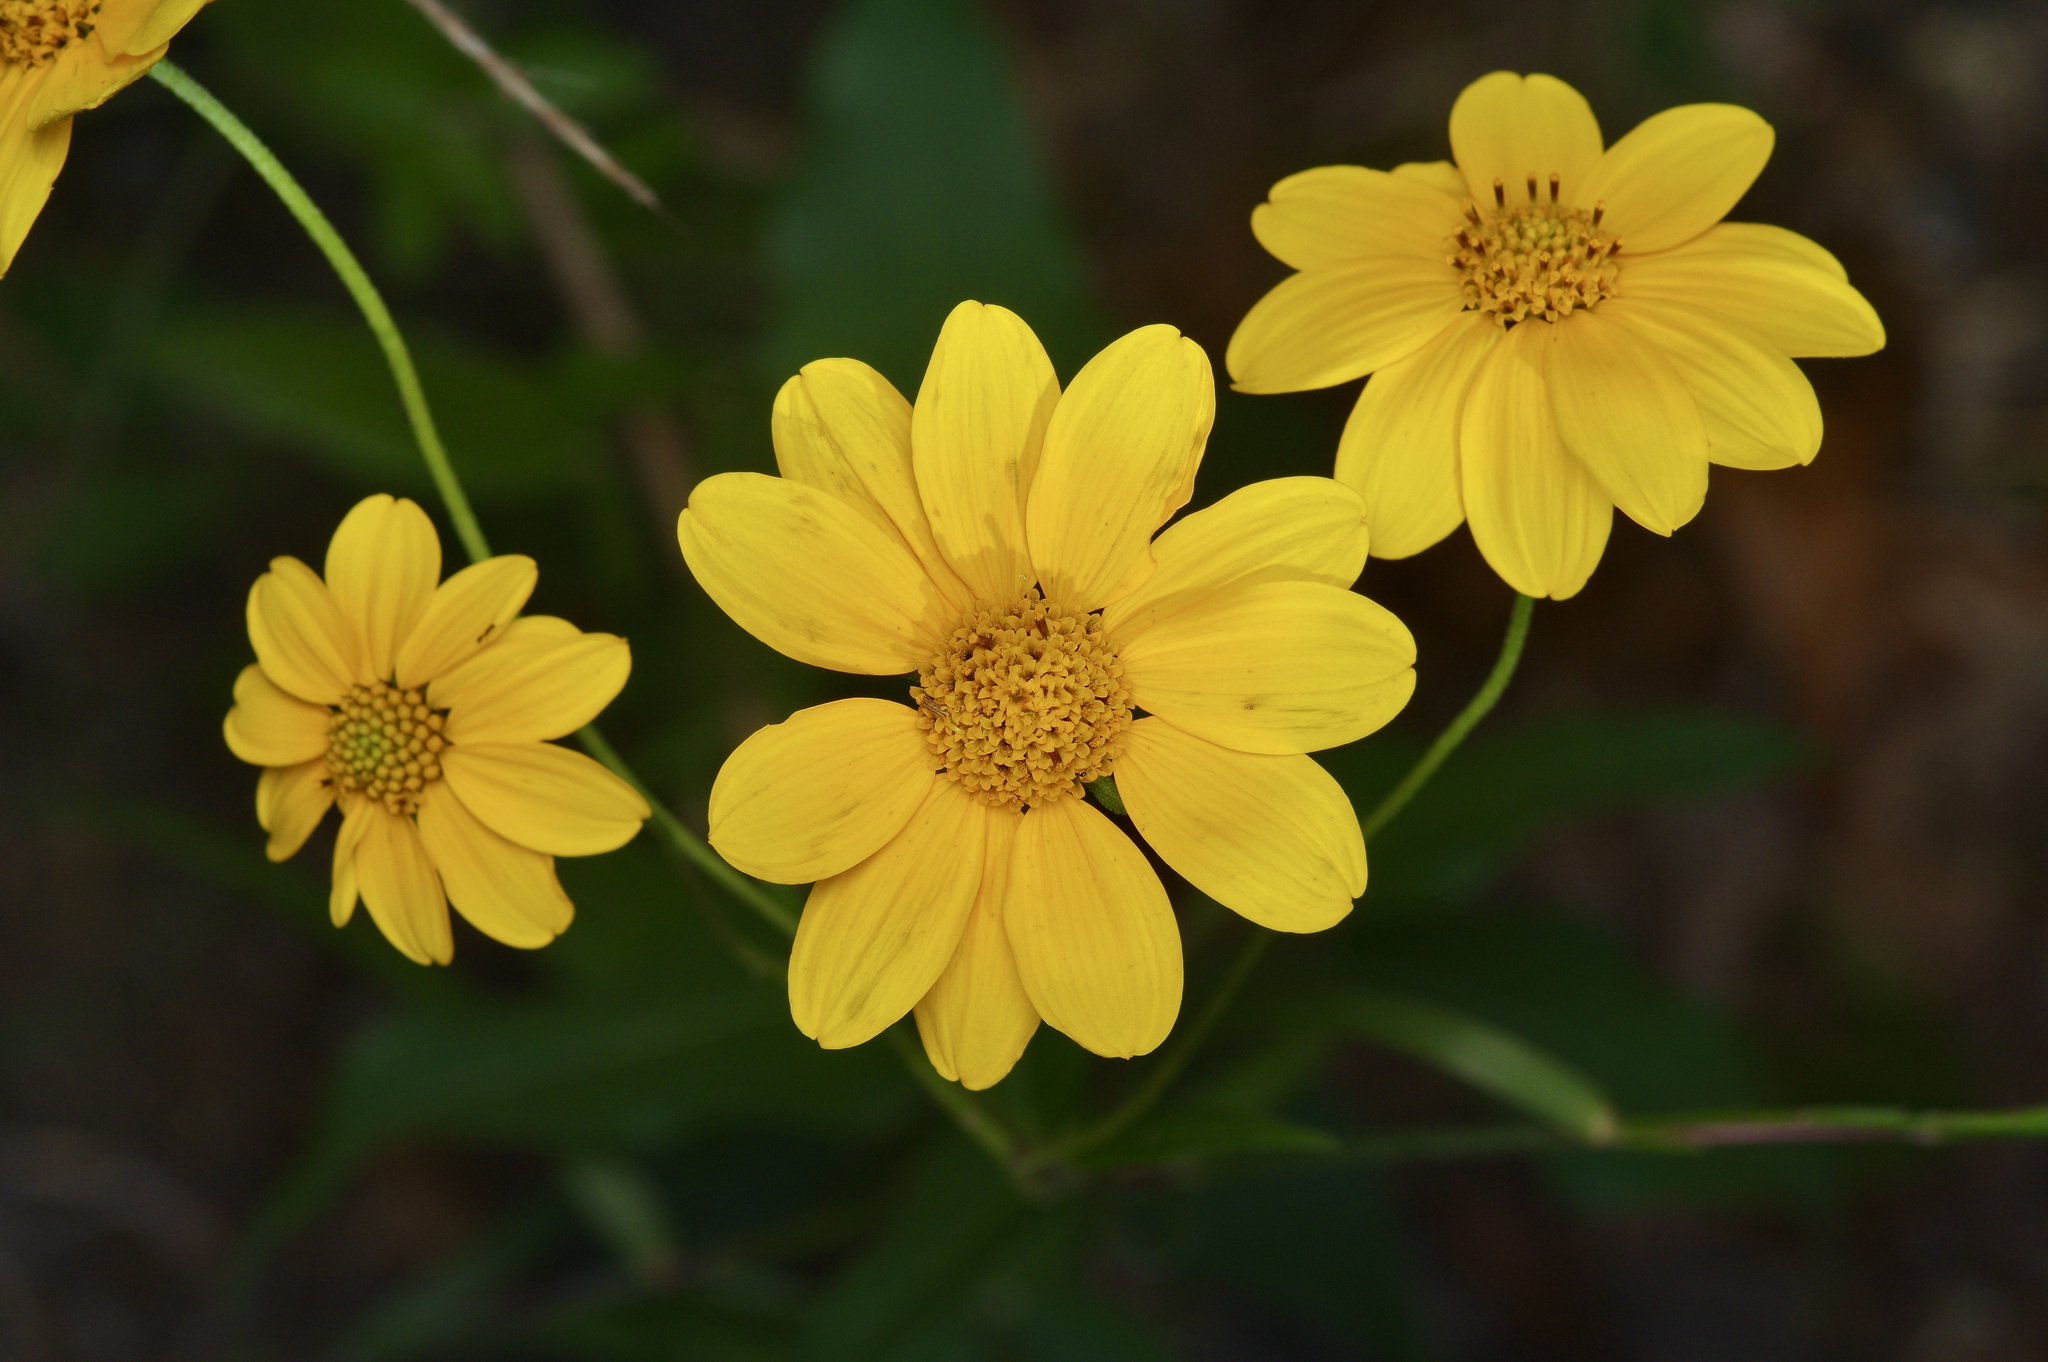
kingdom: Plantae
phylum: Tracheophyta
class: Magnoliopsida
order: Asterales
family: Asteraceae
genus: Viguiera
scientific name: Viguiera dentata
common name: Toothleaf
